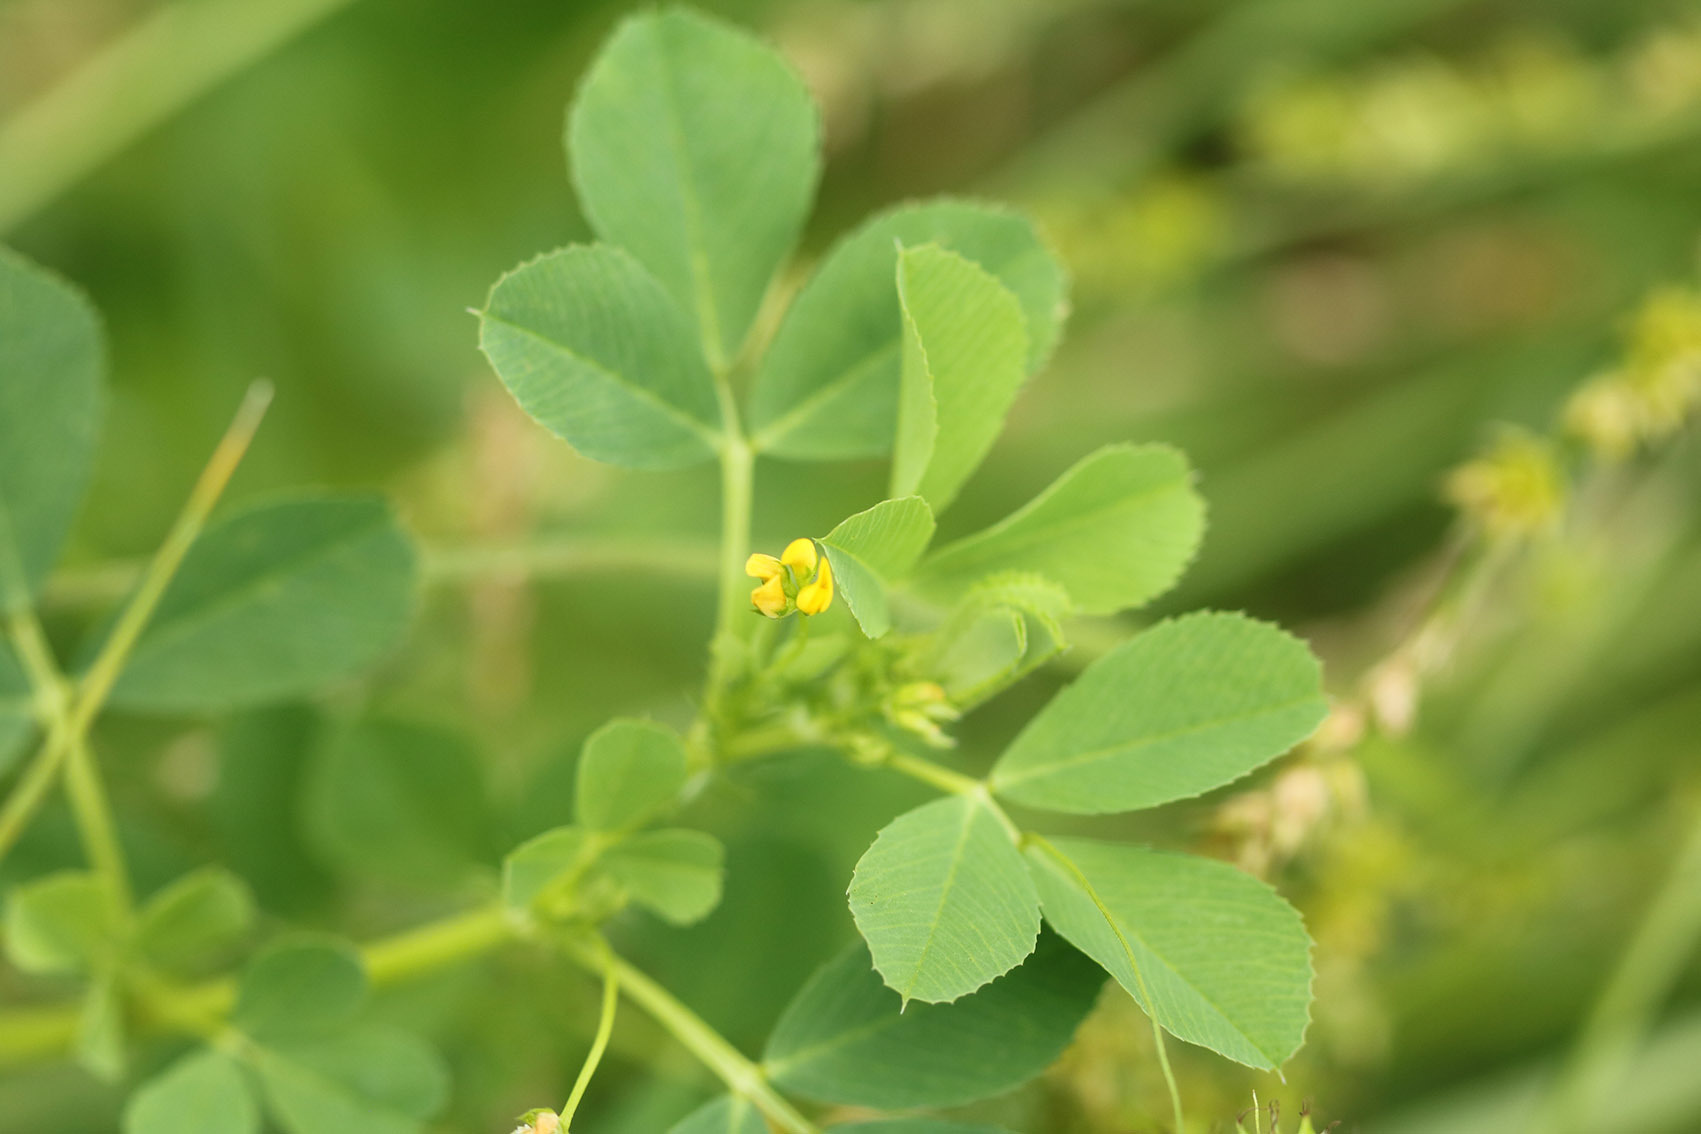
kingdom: Plantae
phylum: Tracheophyta
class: Magnoliopsida
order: Fabales
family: Fabaceae
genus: Medicago
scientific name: Medicago polymorpha
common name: Burclover
